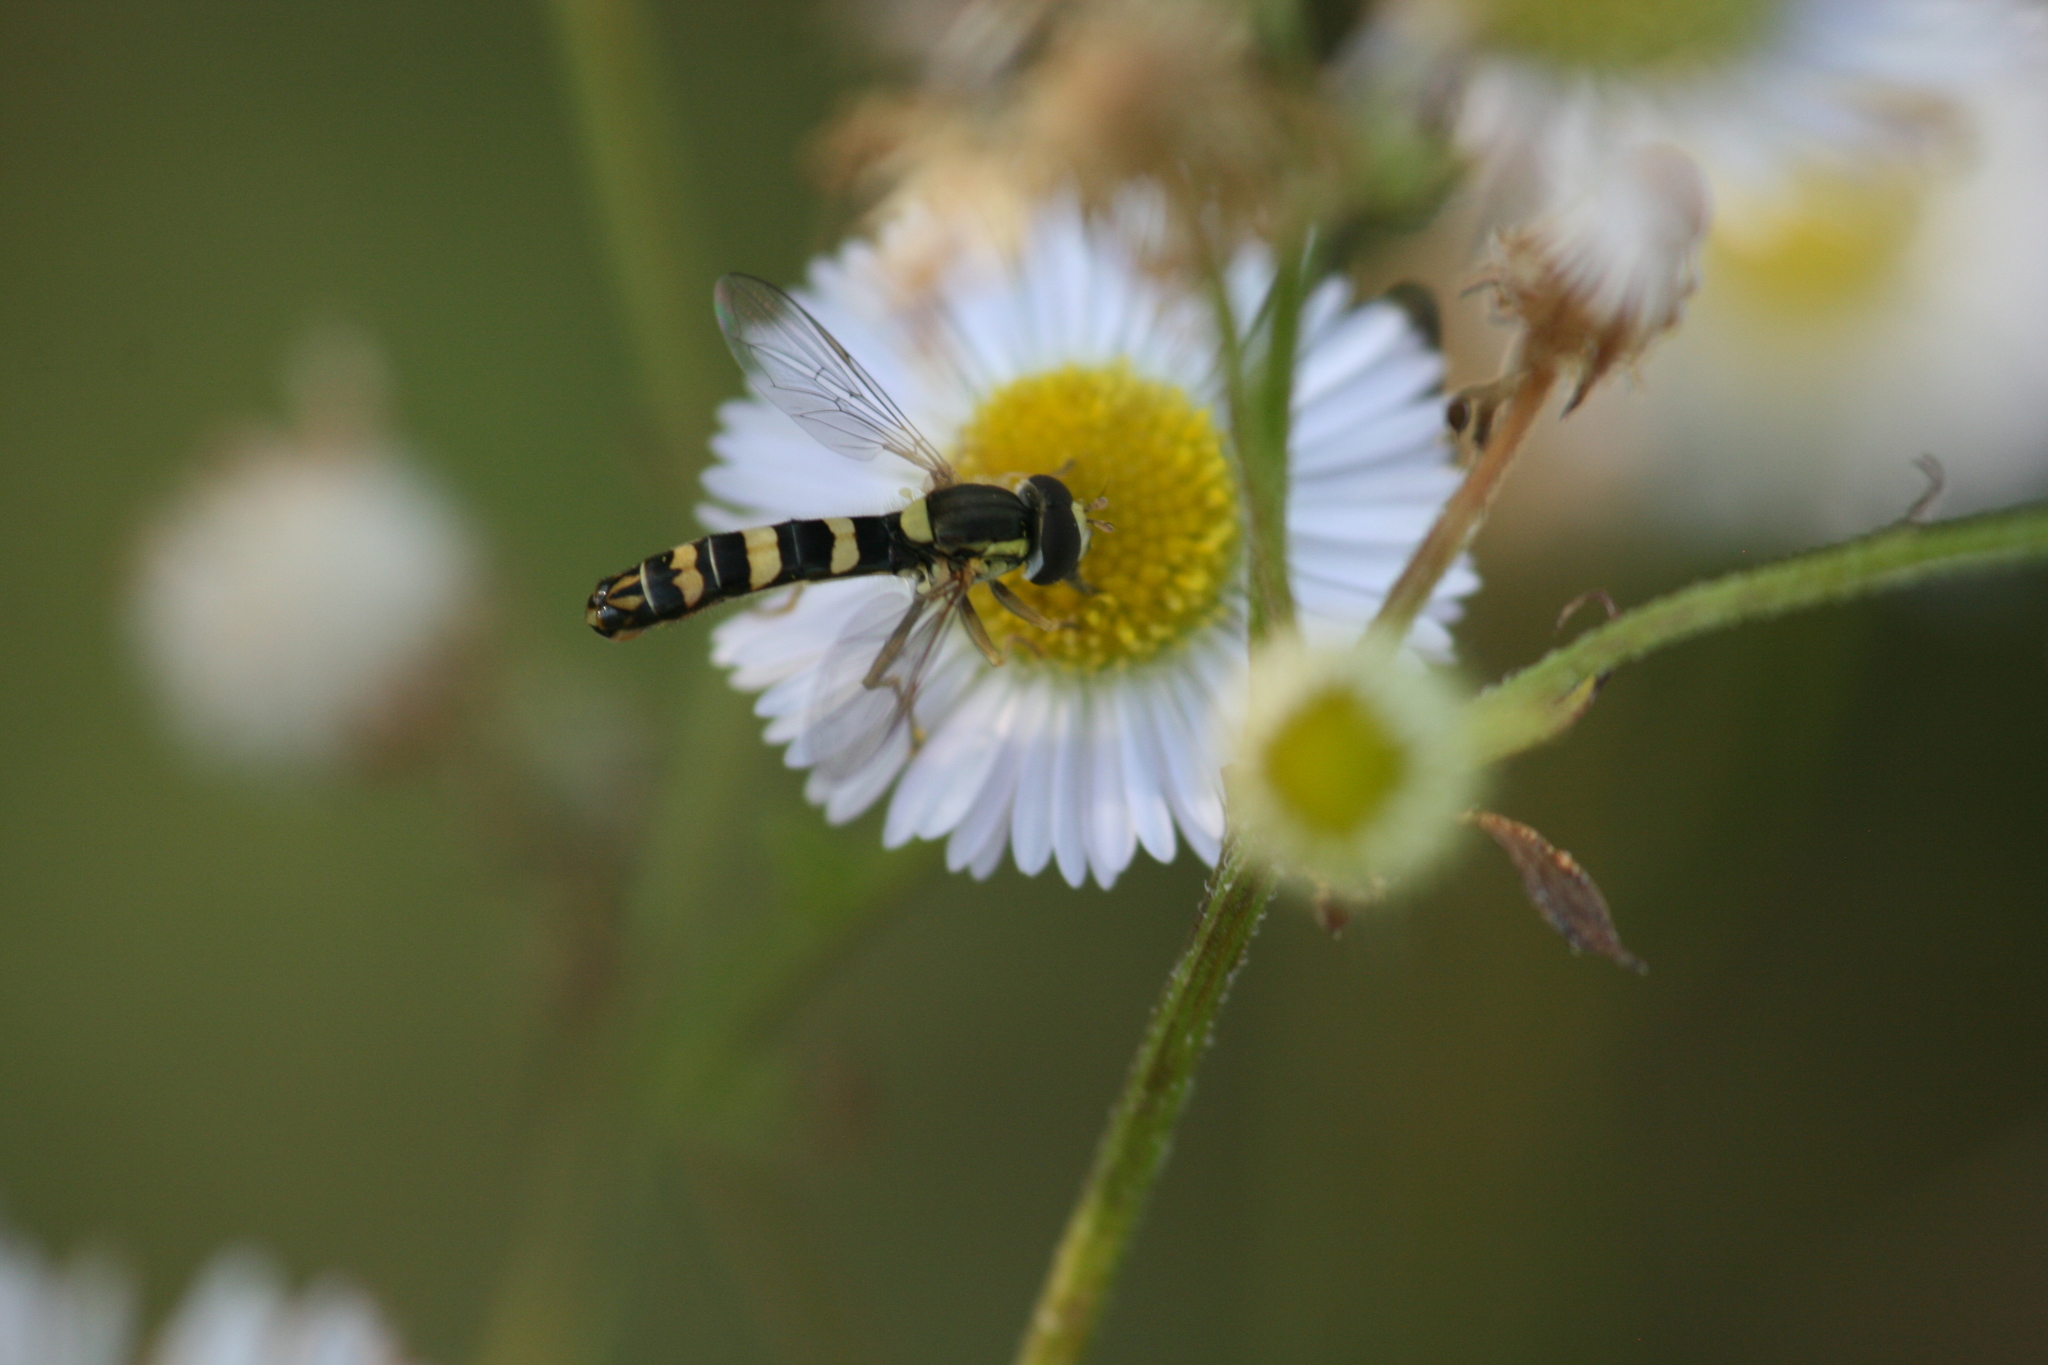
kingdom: Animalia
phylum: Arthropoda
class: Insecta
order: Diptera
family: Syrphidae
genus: Sphaerophoria
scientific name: Sphaerophoria scripta
